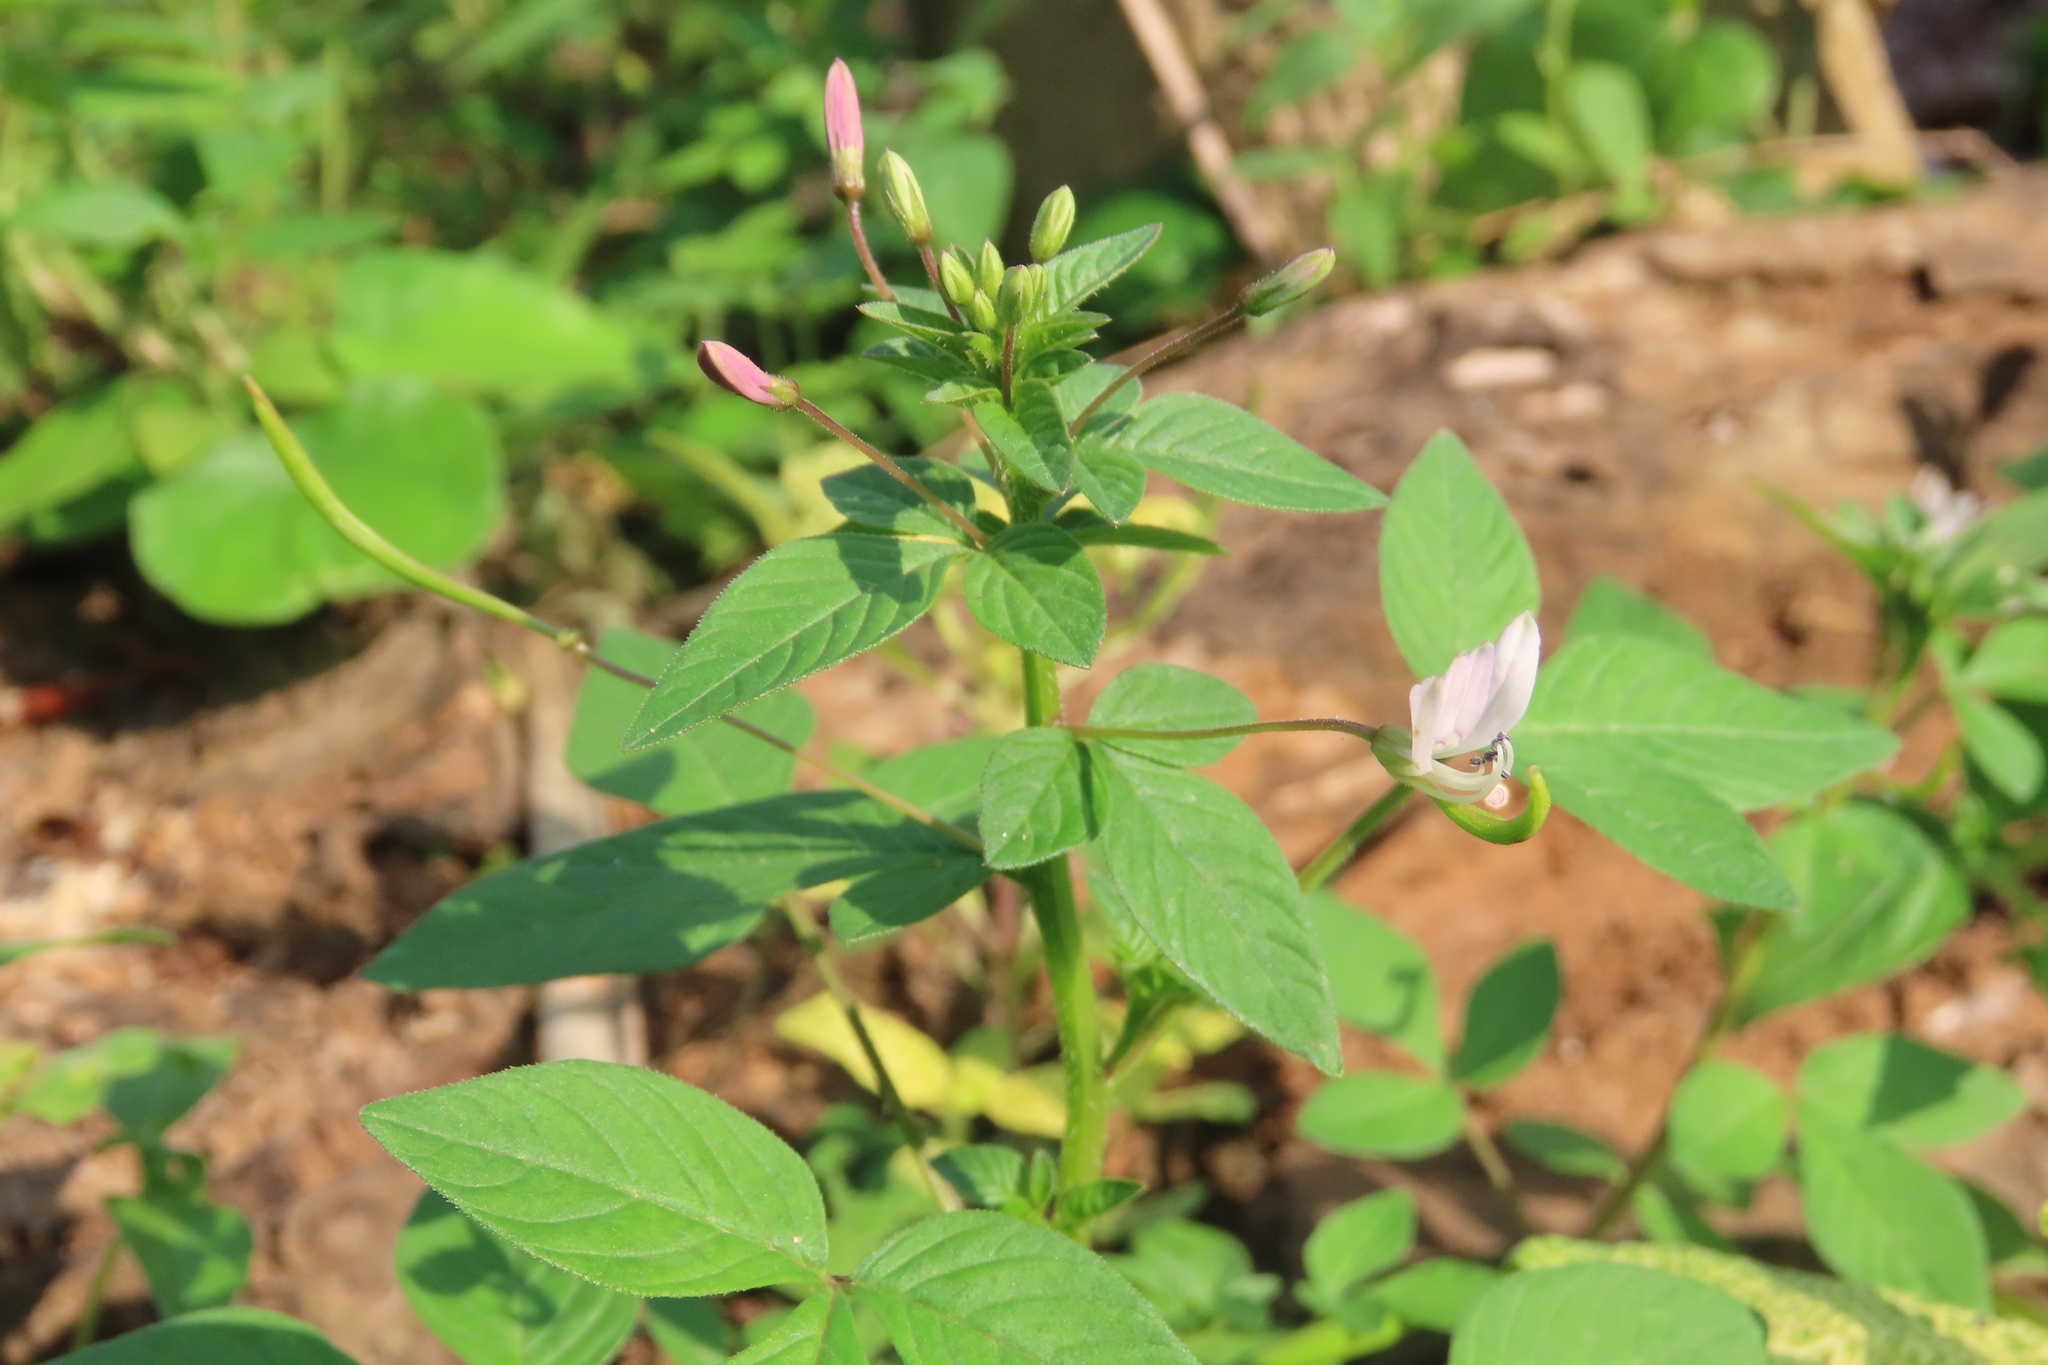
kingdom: Plantae
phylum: Tracheophyta
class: Magnoliopsida
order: Brassicales
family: Cleomaceae
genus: Sieruela
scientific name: Sieruela rutidosperma
